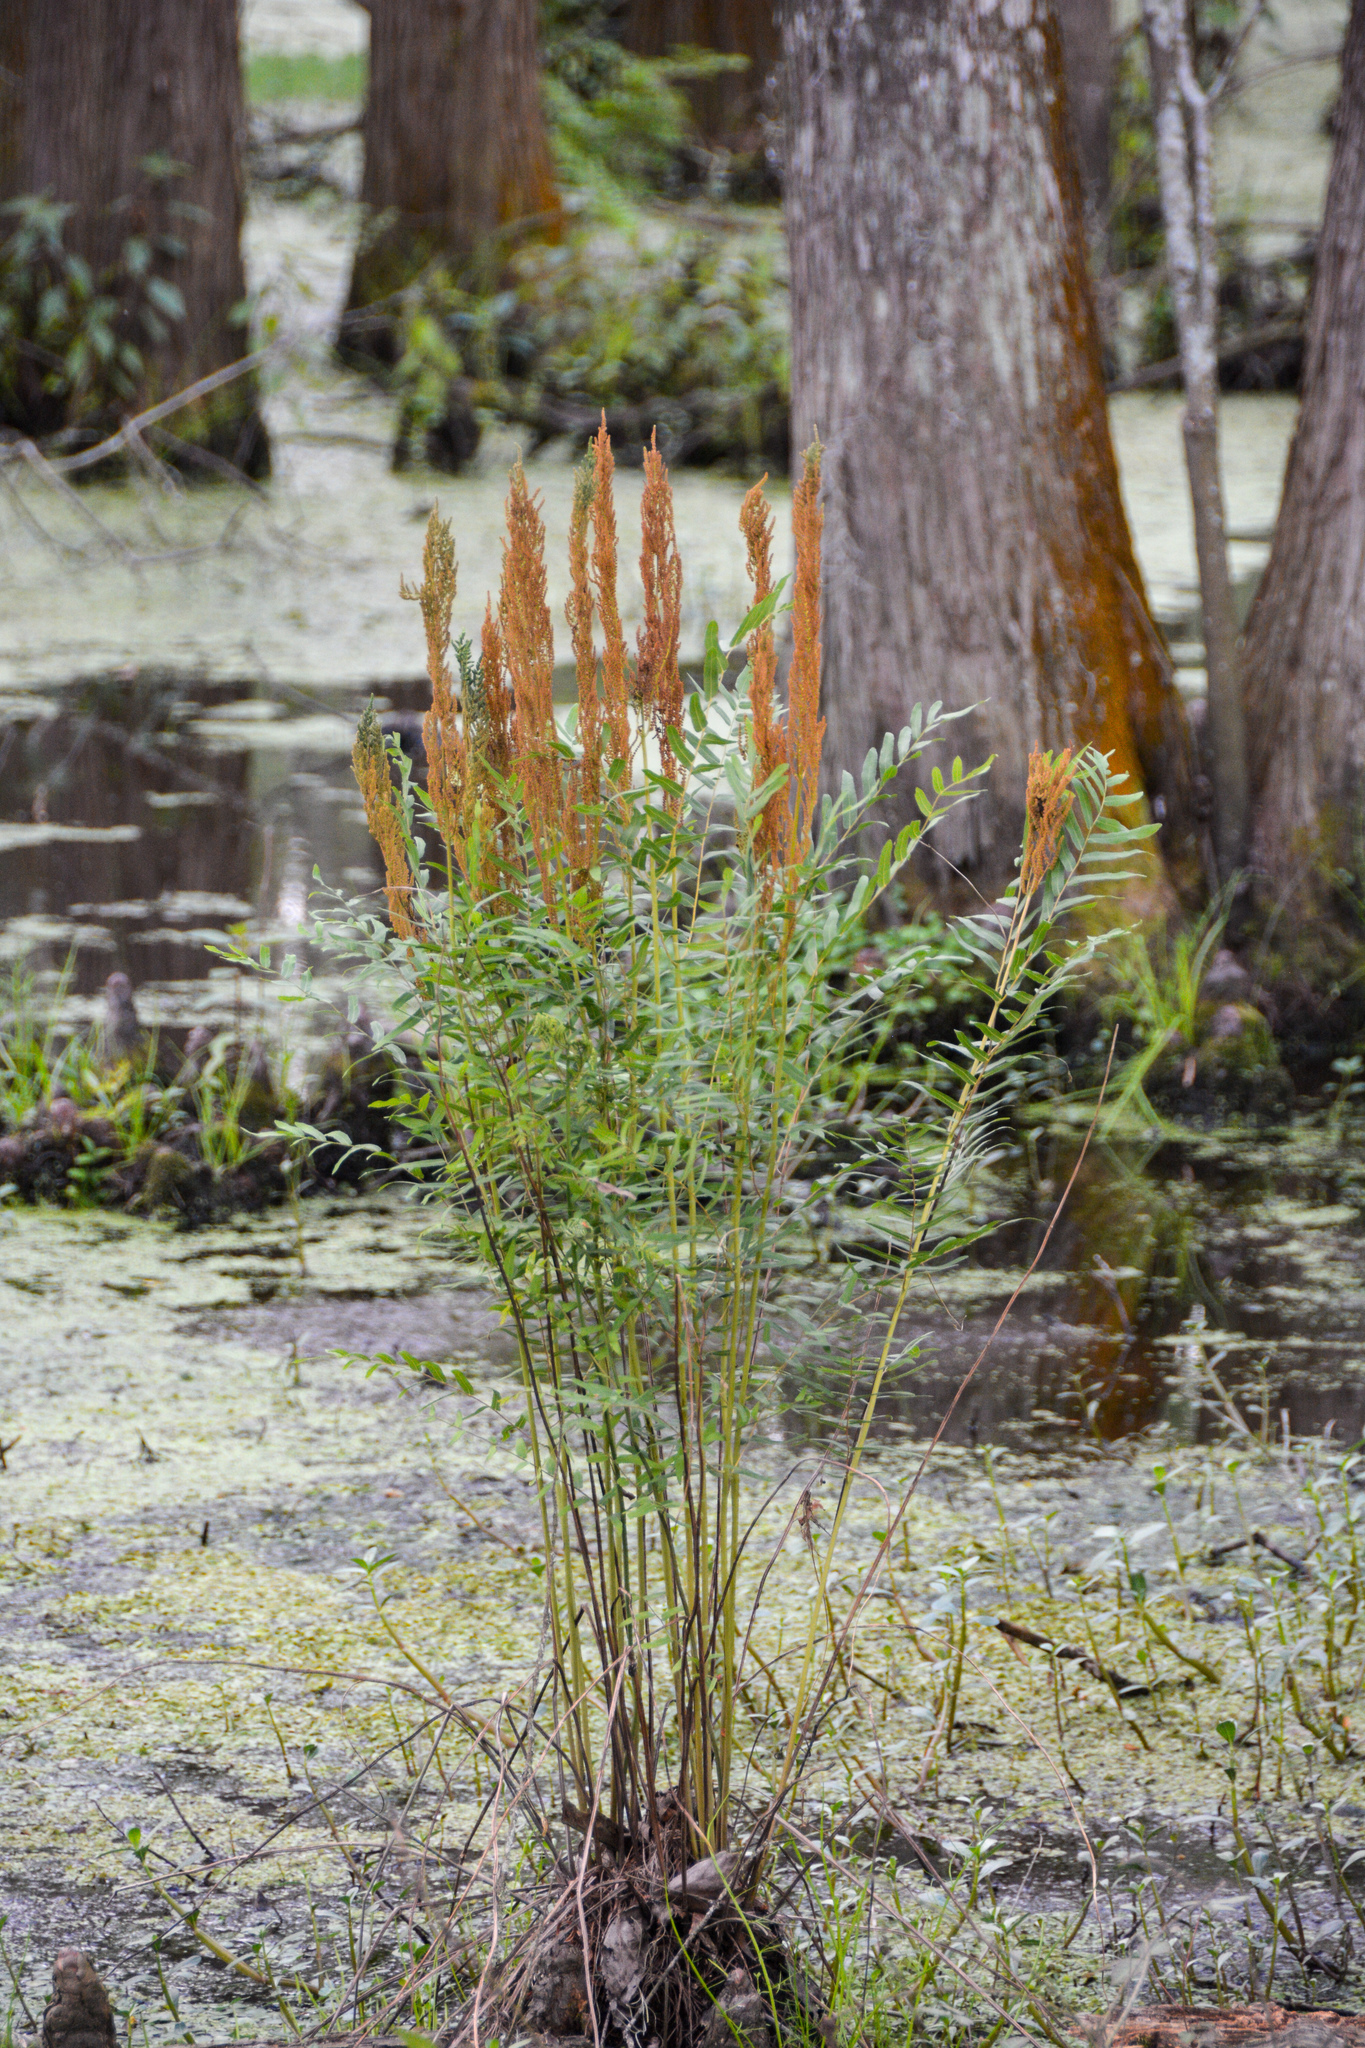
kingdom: Plantae
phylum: Tracheophyta
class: Polypodiopsida
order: Osmundales
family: Osmundaceae
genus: Osmunda
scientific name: Osmunda spectabilis
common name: American royal fern
